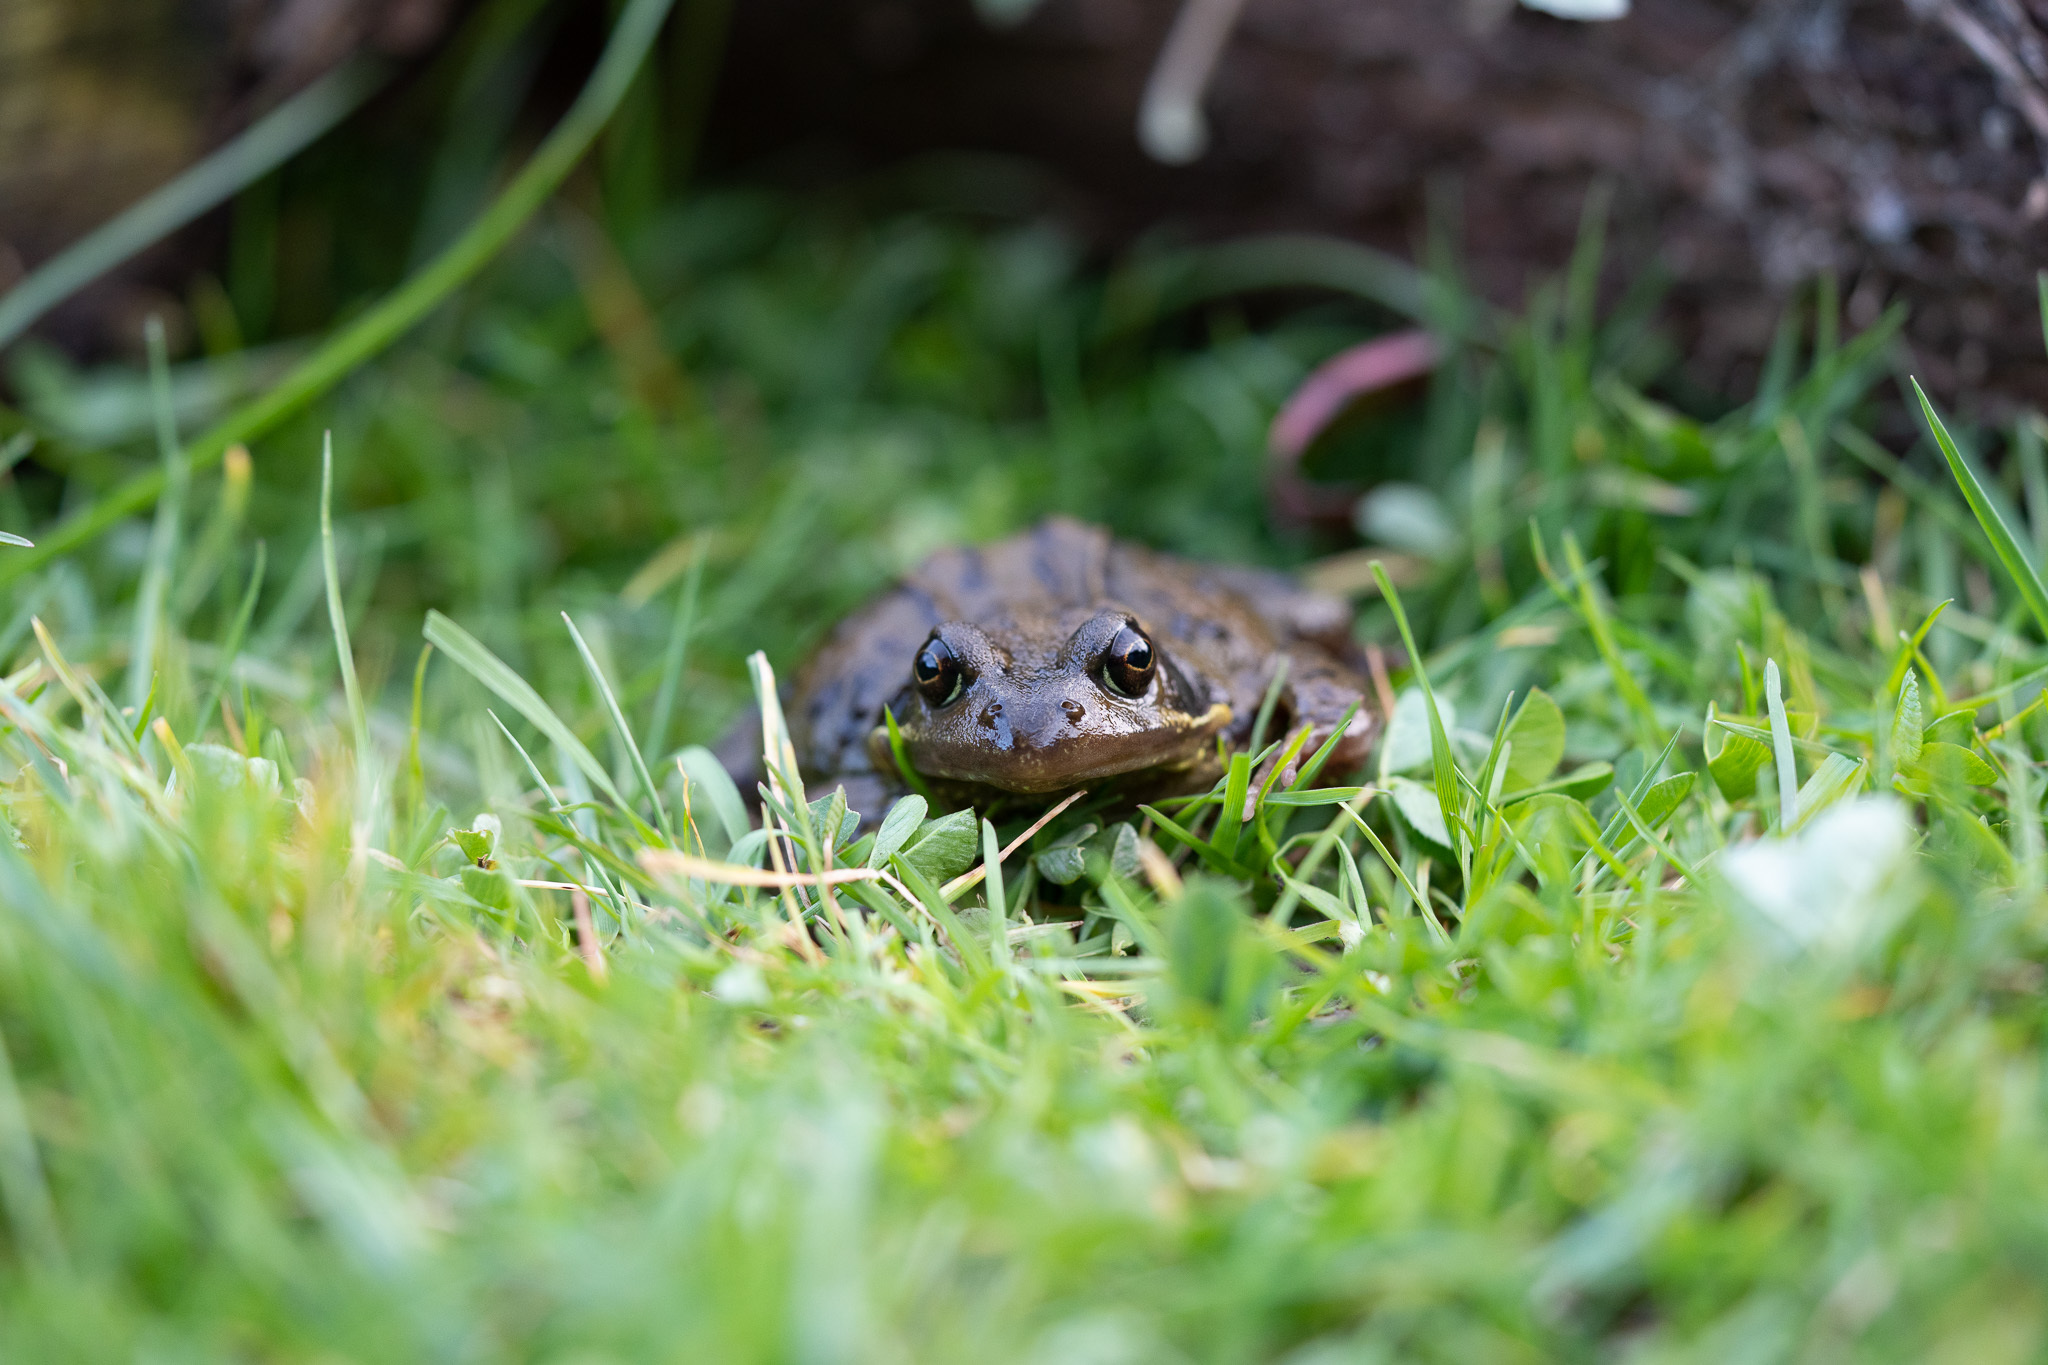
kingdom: Animalia
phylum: Chordata
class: Amphibia
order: Anura
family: Ranidae
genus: Rana
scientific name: Rana temporaria
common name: Common frog
